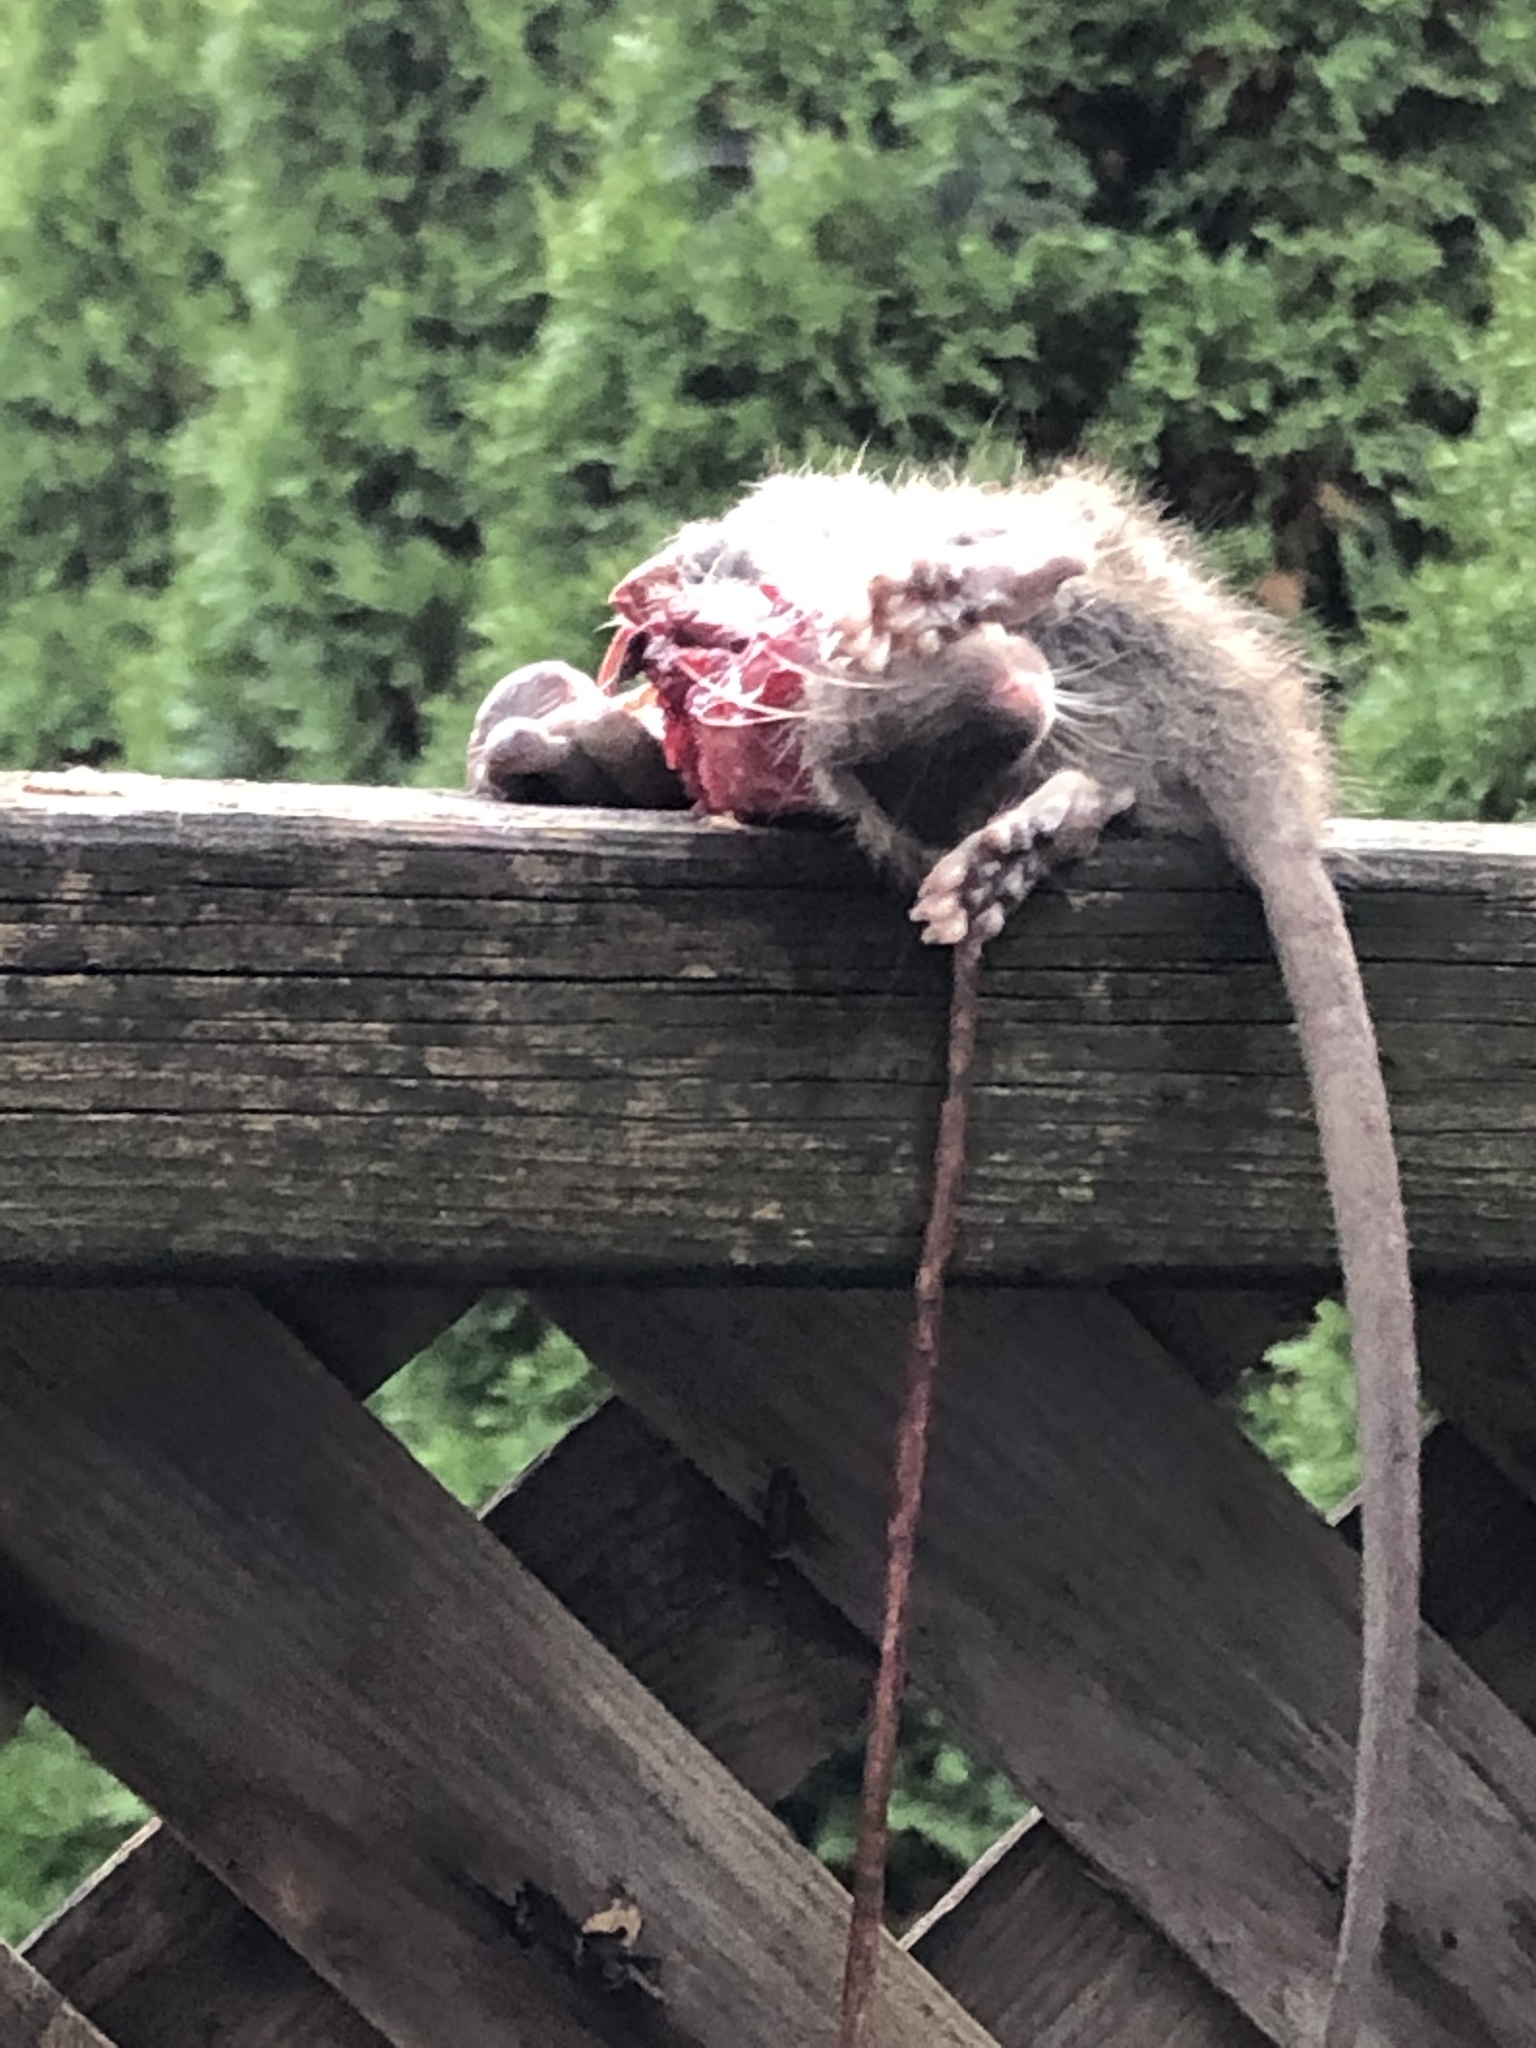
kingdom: Animalia
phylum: Chordata
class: Mammalia
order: Rodentia
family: Muridae
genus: Rattus
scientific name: Rattus norvegicus
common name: Brown rat
